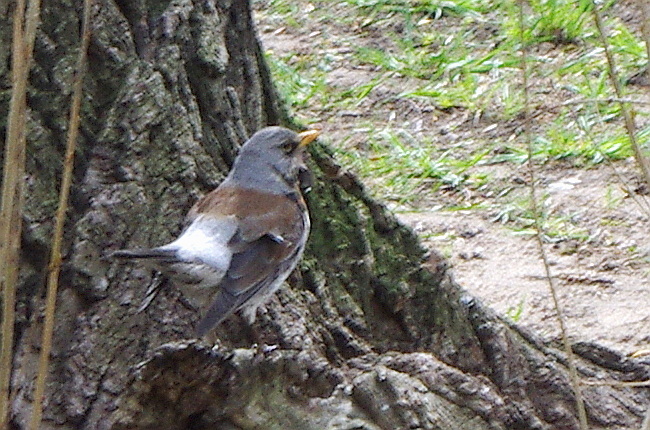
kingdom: Animalia
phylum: Chordata
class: Aves
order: Passeriformes
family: Turdidae
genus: Turdus
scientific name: Turdus pilaris
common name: Fieldfare
